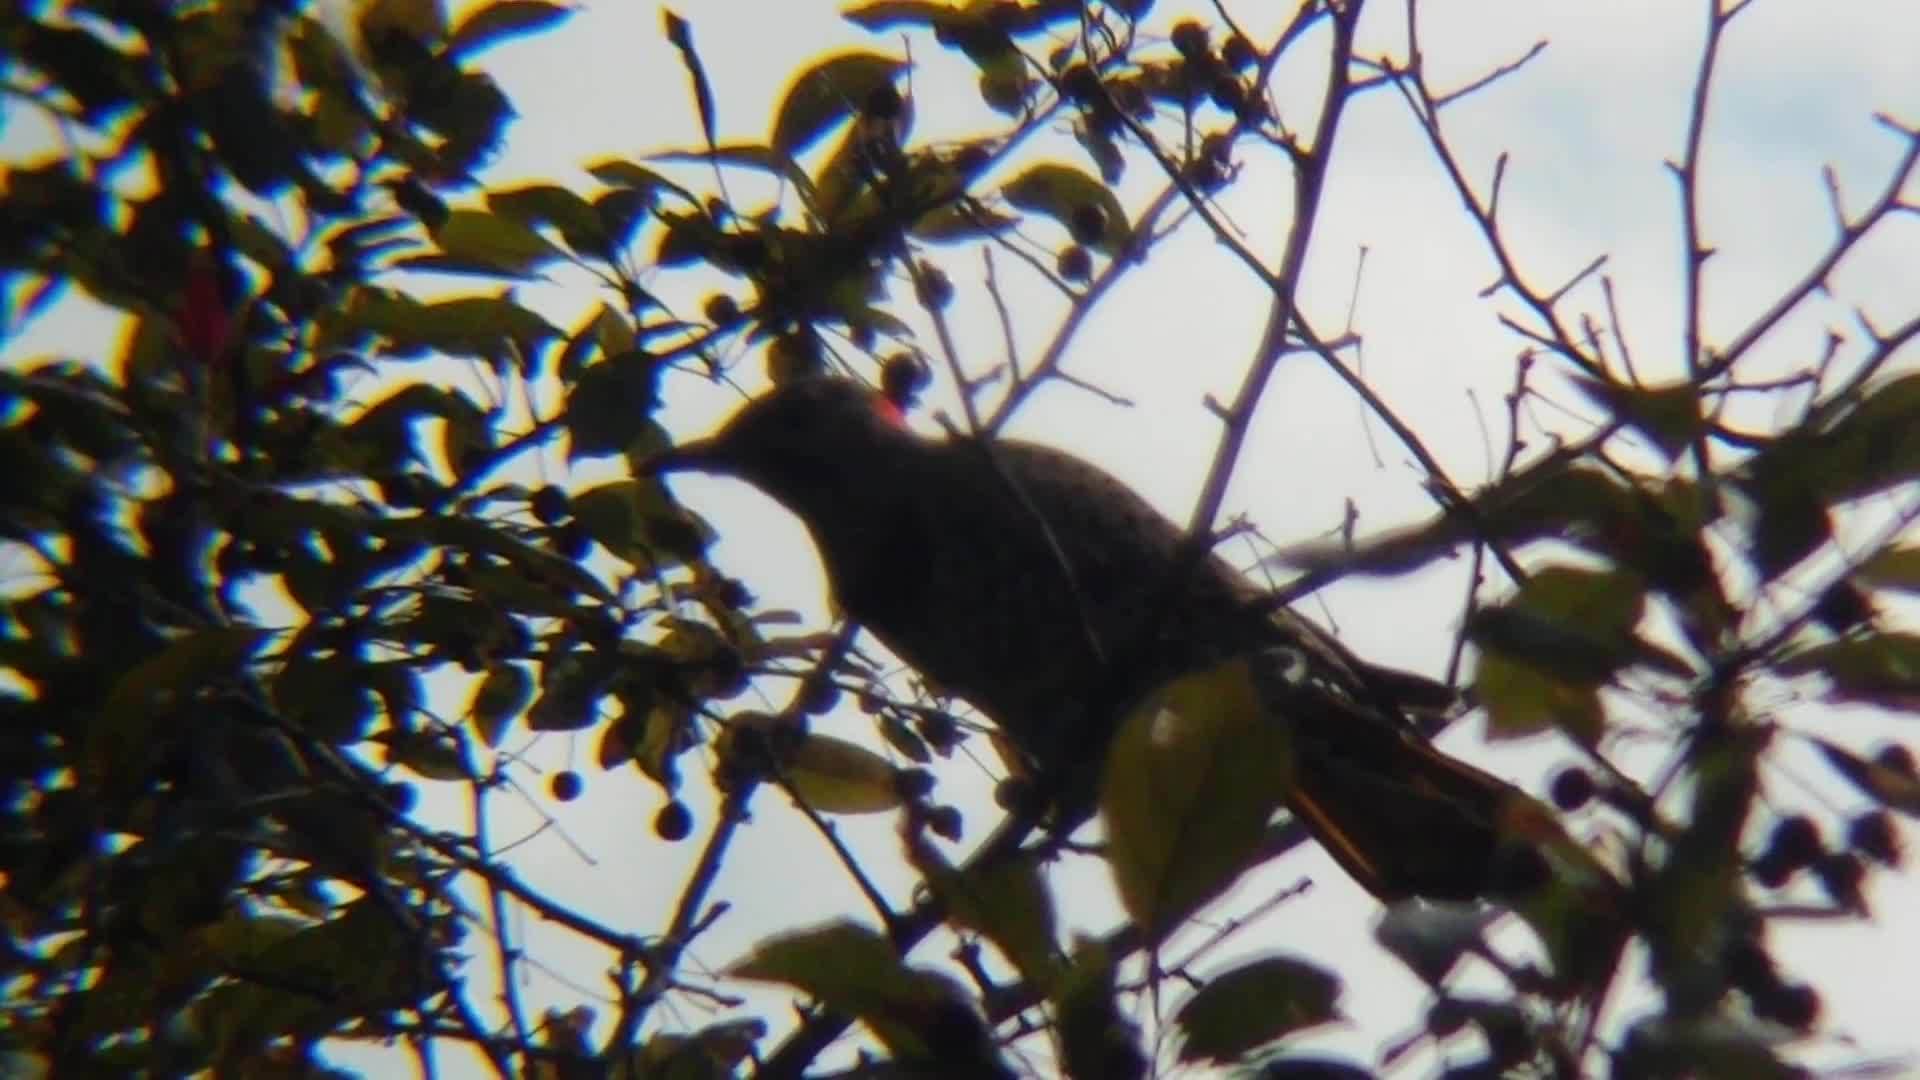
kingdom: Animalia
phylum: Chordata
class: Aves
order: Piciformes
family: Picidae
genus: Colaptes
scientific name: Colaptes auratus
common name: Northern flicker
